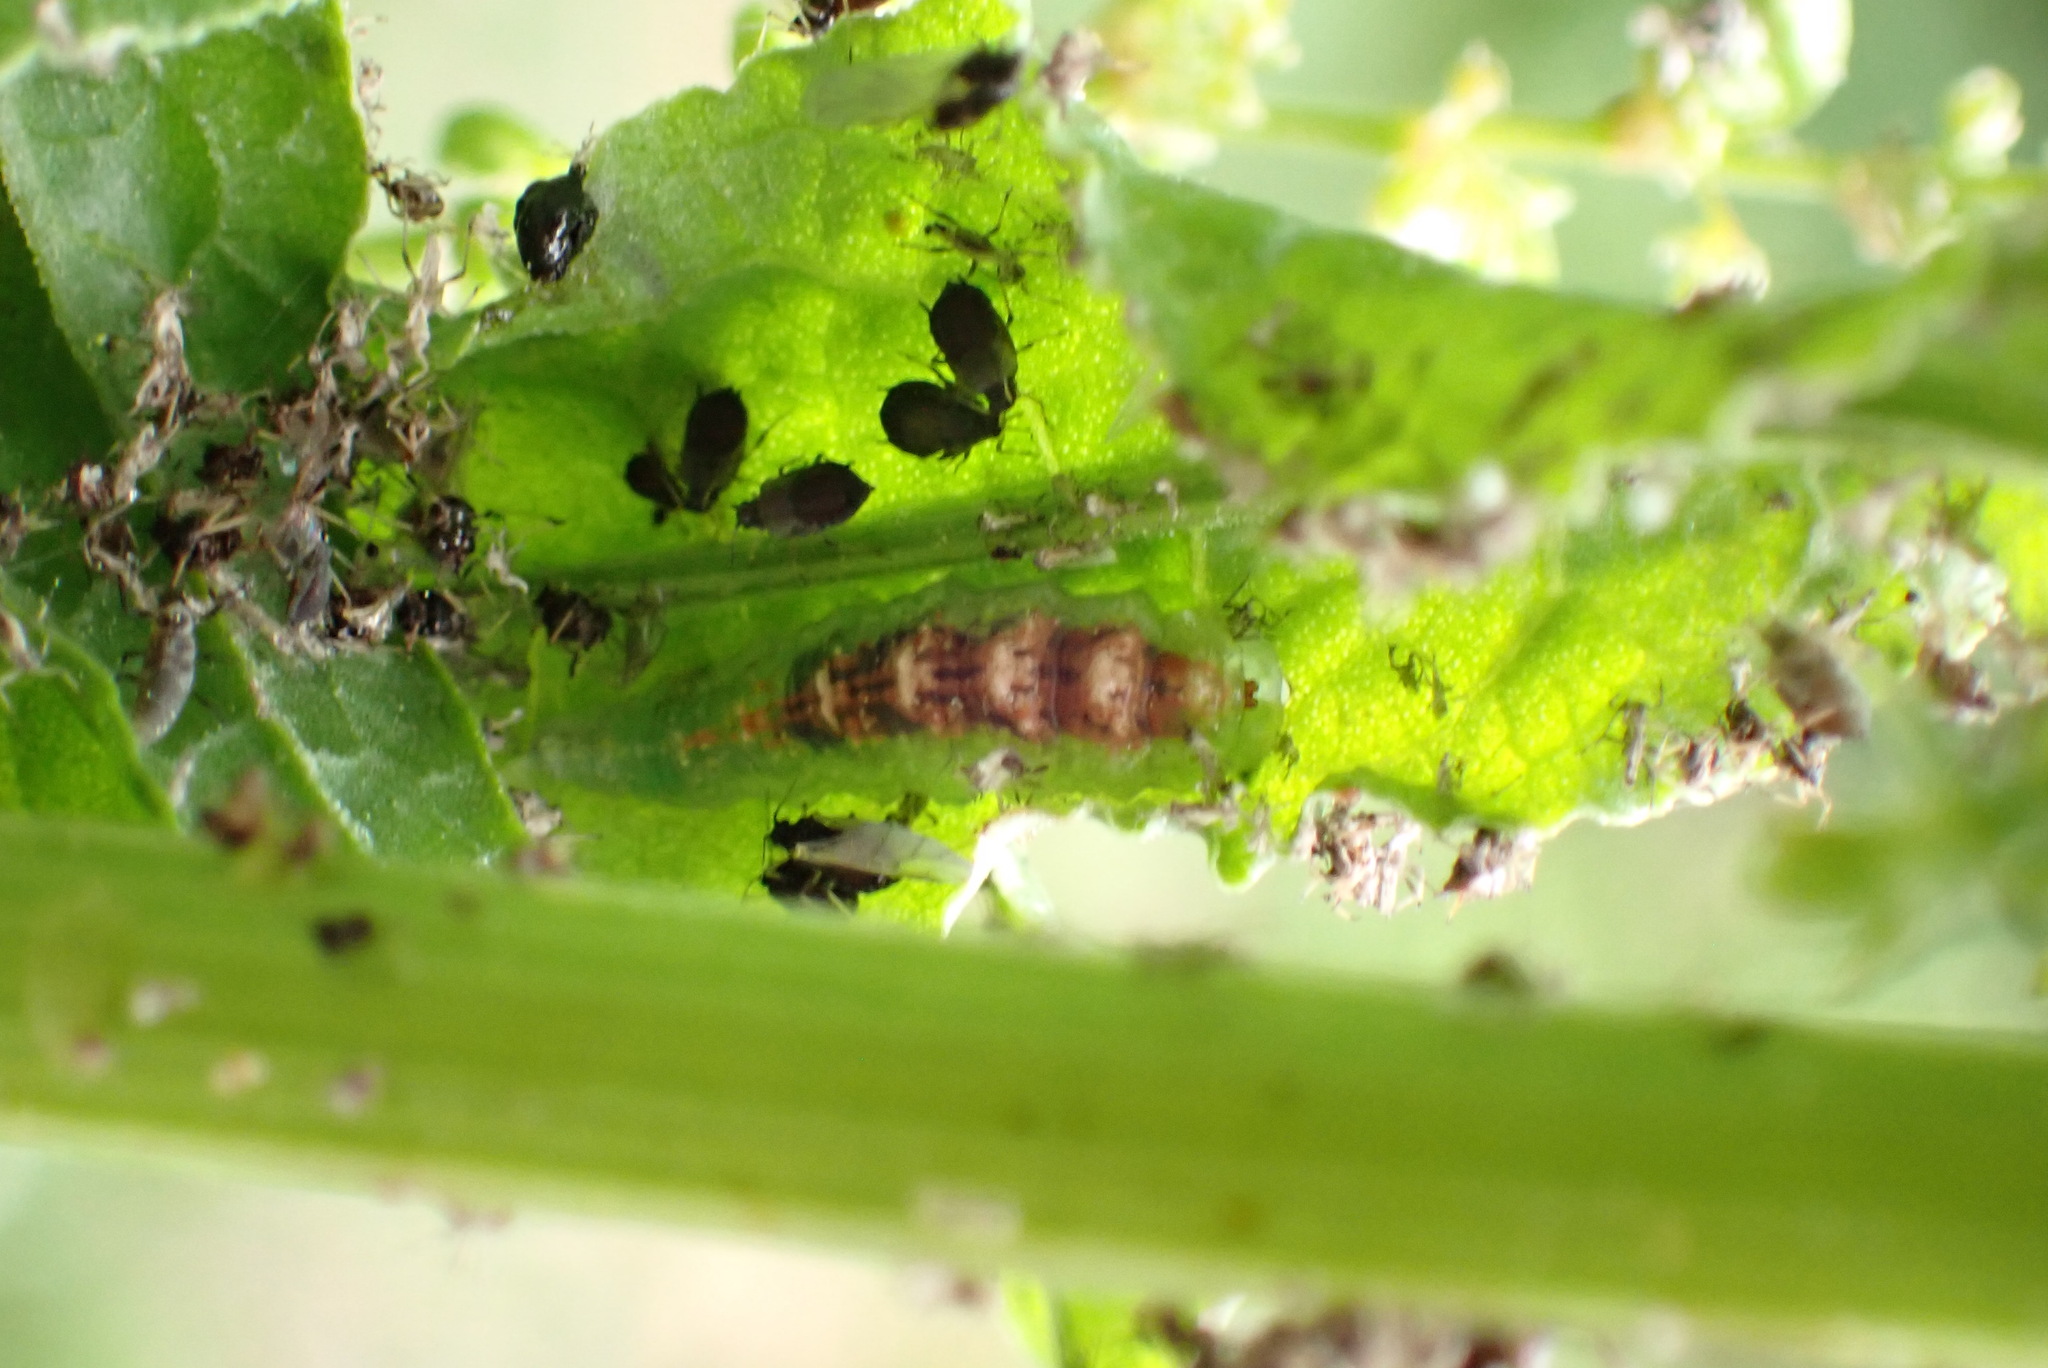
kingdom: Animalia
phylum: Arthropoda
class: Insecta
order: Diptera
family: Syrphidae
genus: Eupeodes
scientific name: Eupeodes pomus
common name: Short-tailed aphideater
